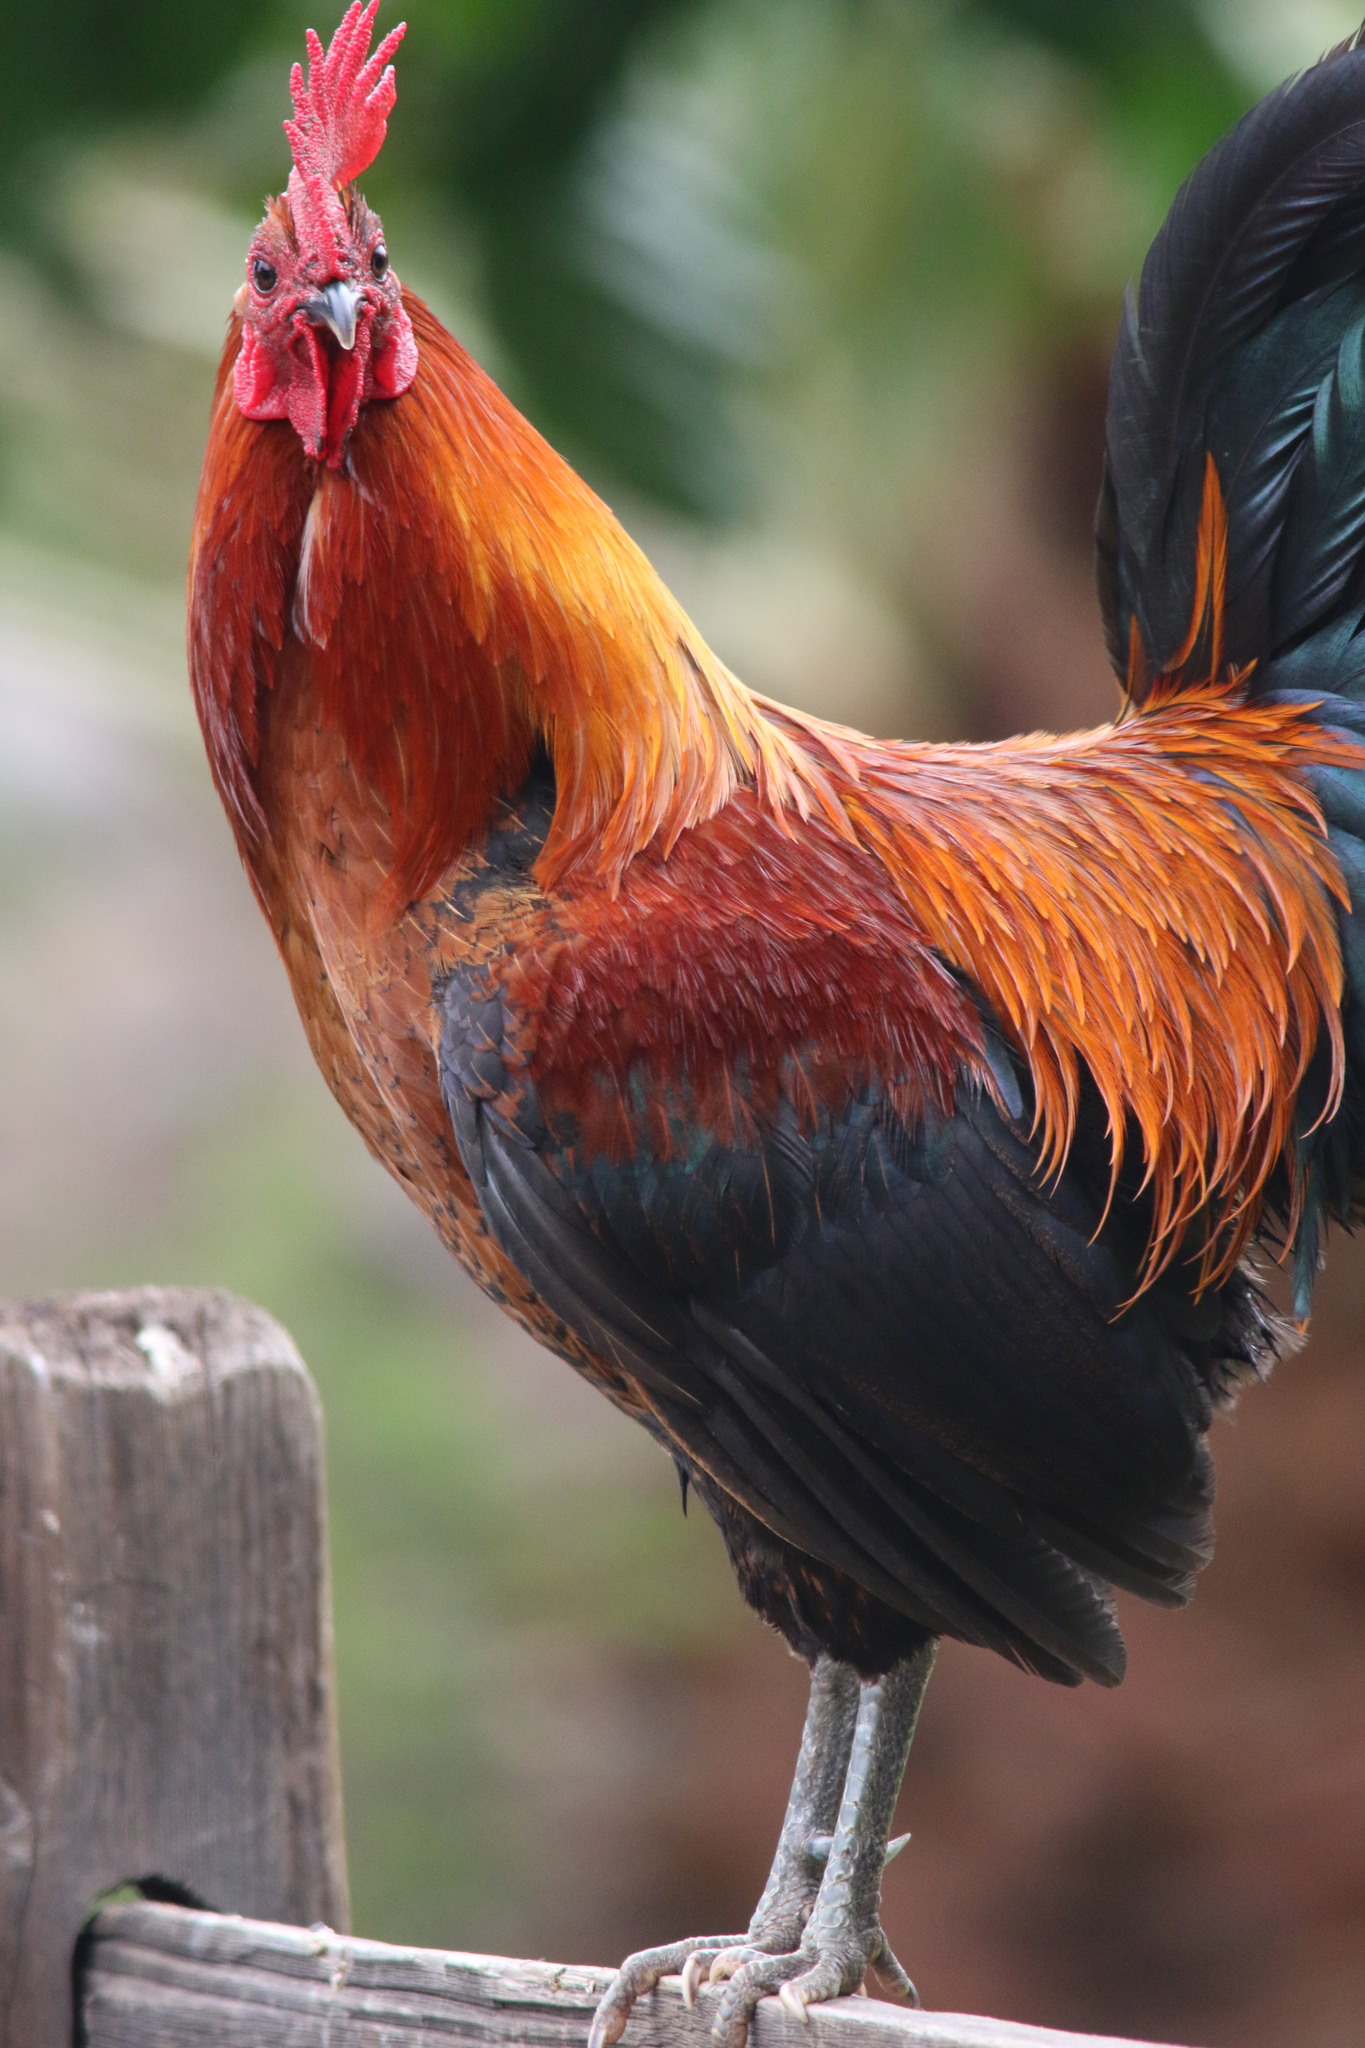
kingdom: Animalia
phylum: Chordata
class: Aves
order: Galliformes
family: Phasianidae
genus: Gallus
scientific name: Gallus gallus
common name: Red junglefowl
